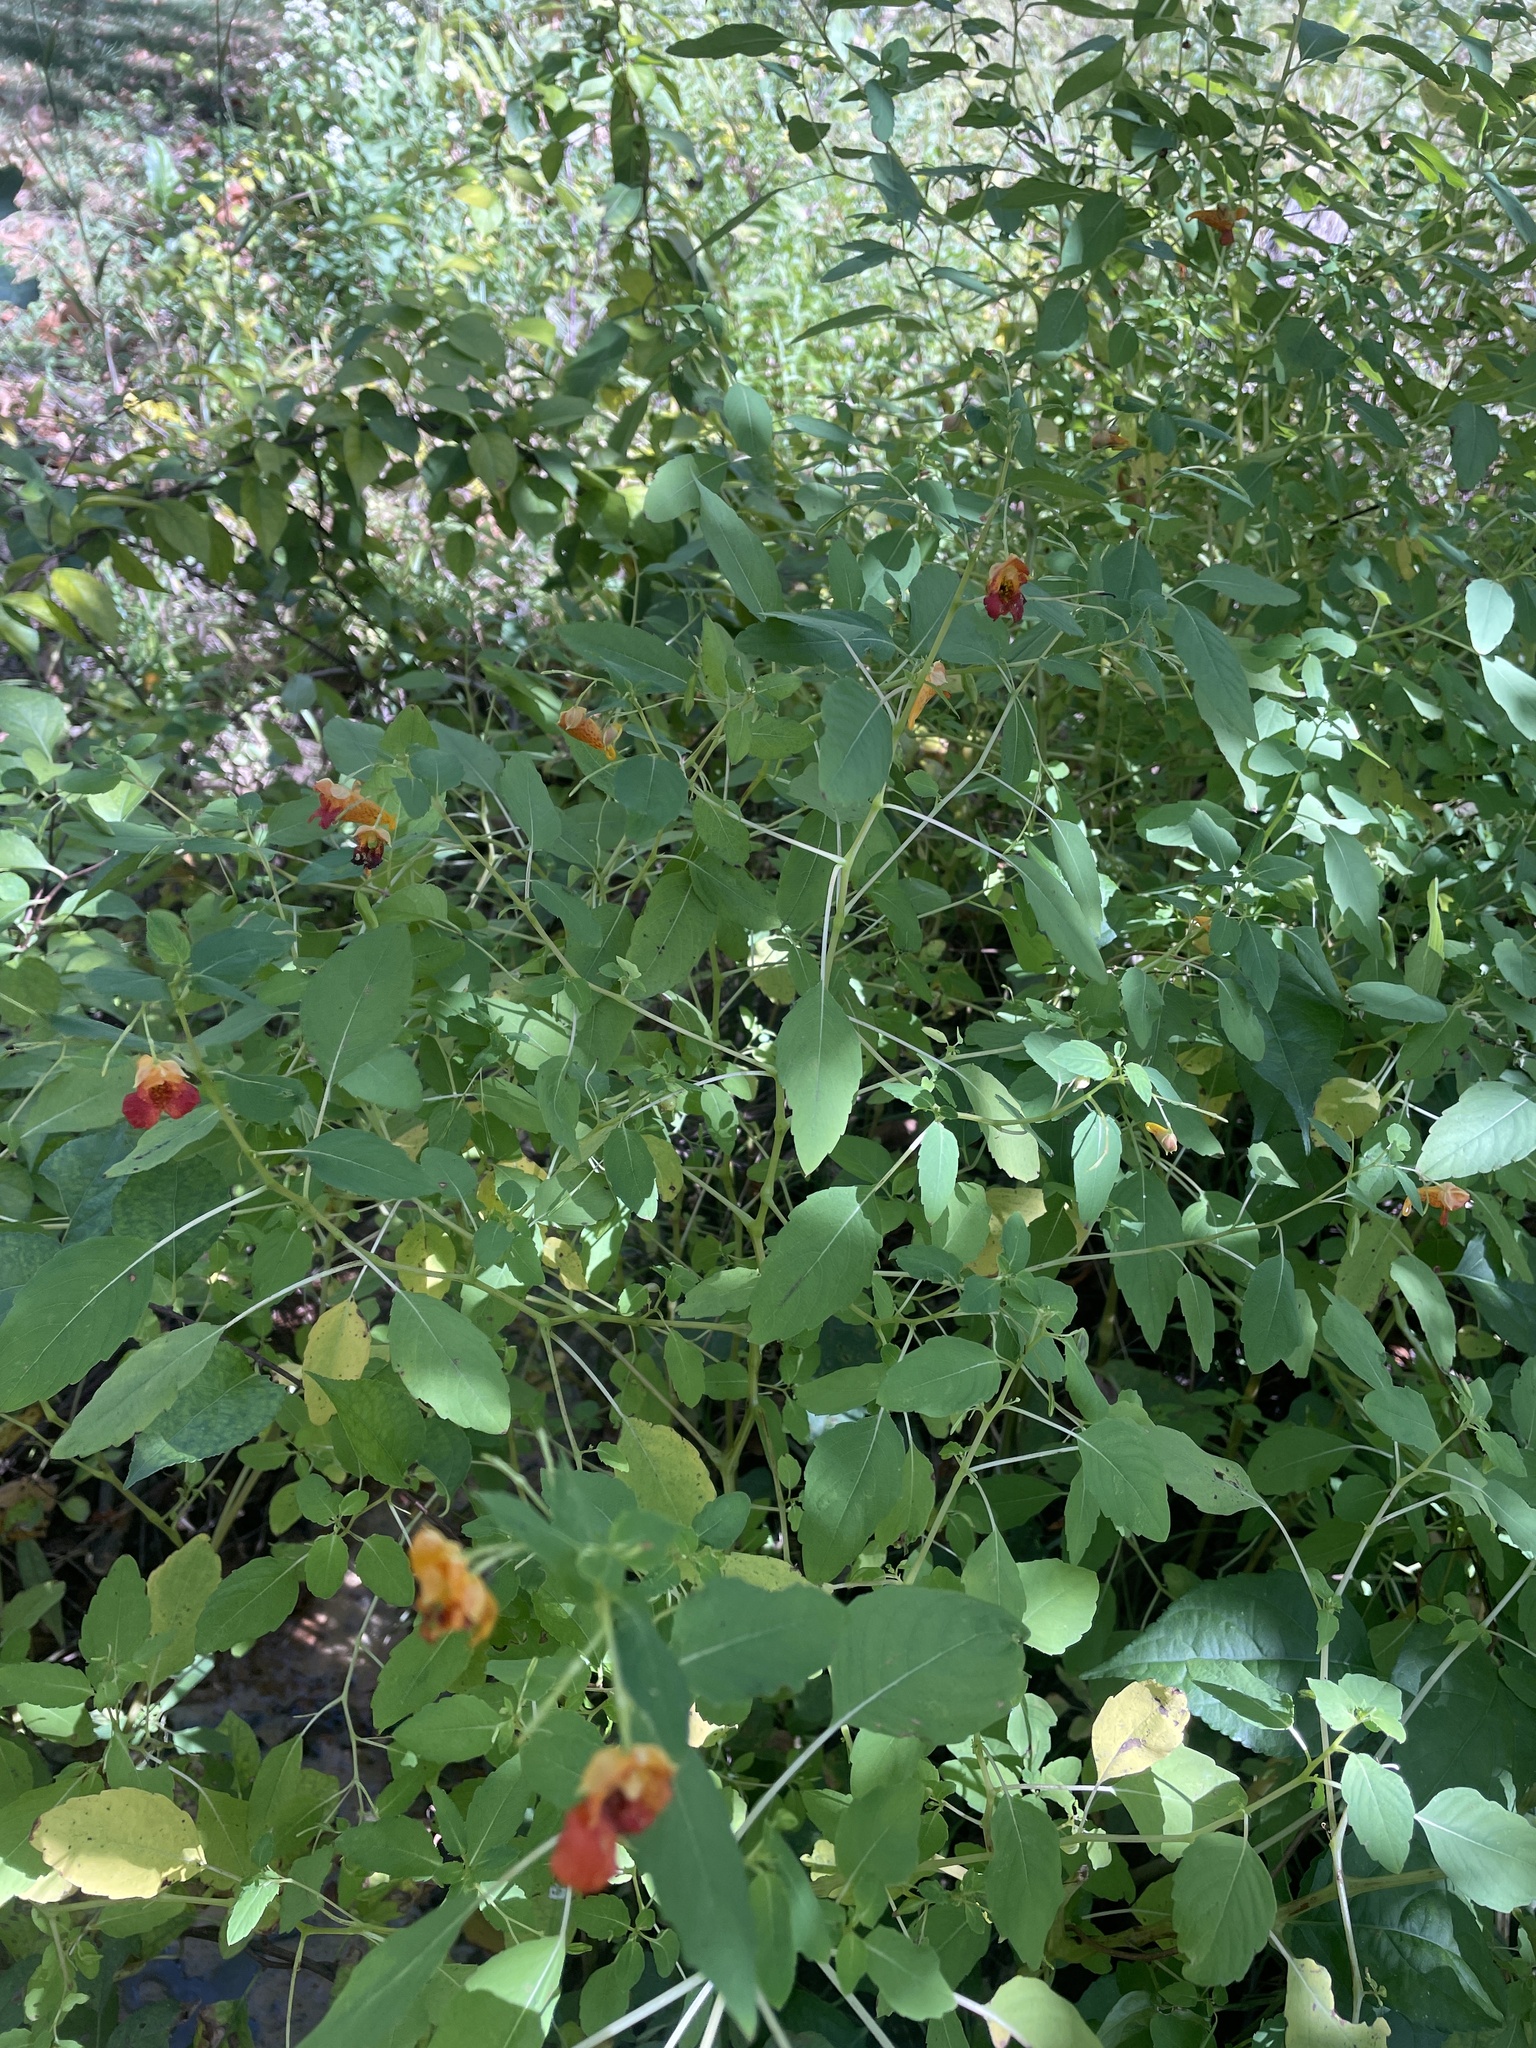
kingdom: Plantae
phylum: Tracheophyta
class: Magnoliopsida
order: Ericales
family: Balsaminaceae
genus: Impatiens
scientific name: Impatiens capensis
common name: Orange balsam
